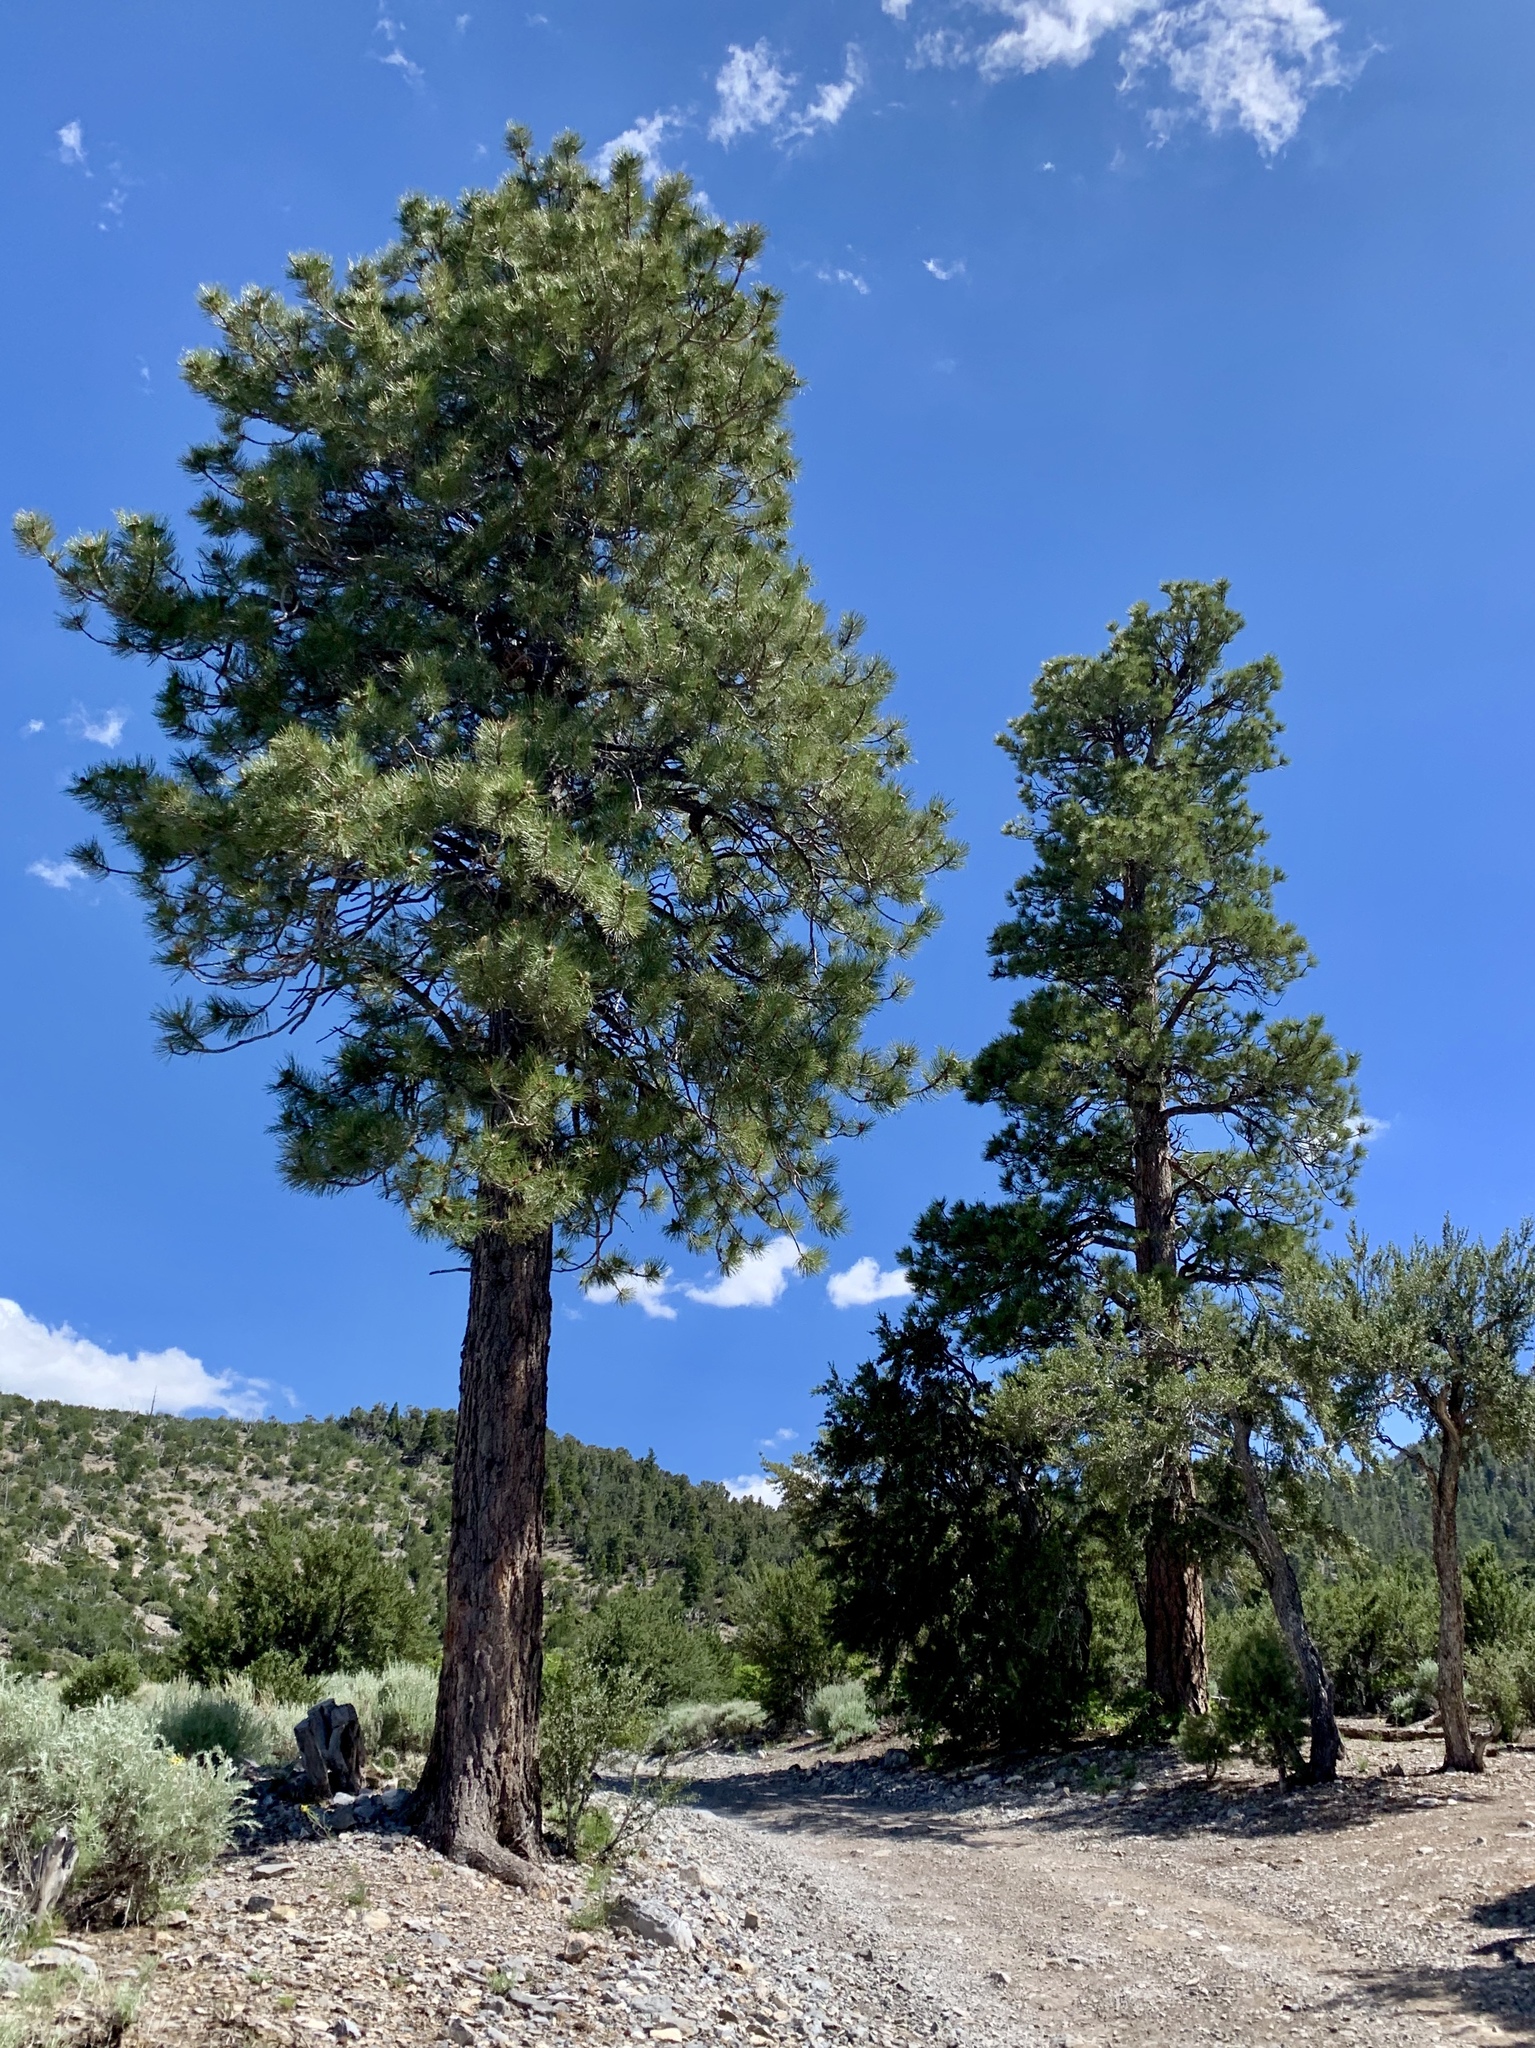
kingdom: Plantae
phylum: Tracheophyta
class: Pinopsida
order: Pinales
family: Pinaceae
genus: Pinus
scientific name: Pinus ponderosa
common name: Western yellow-pine
